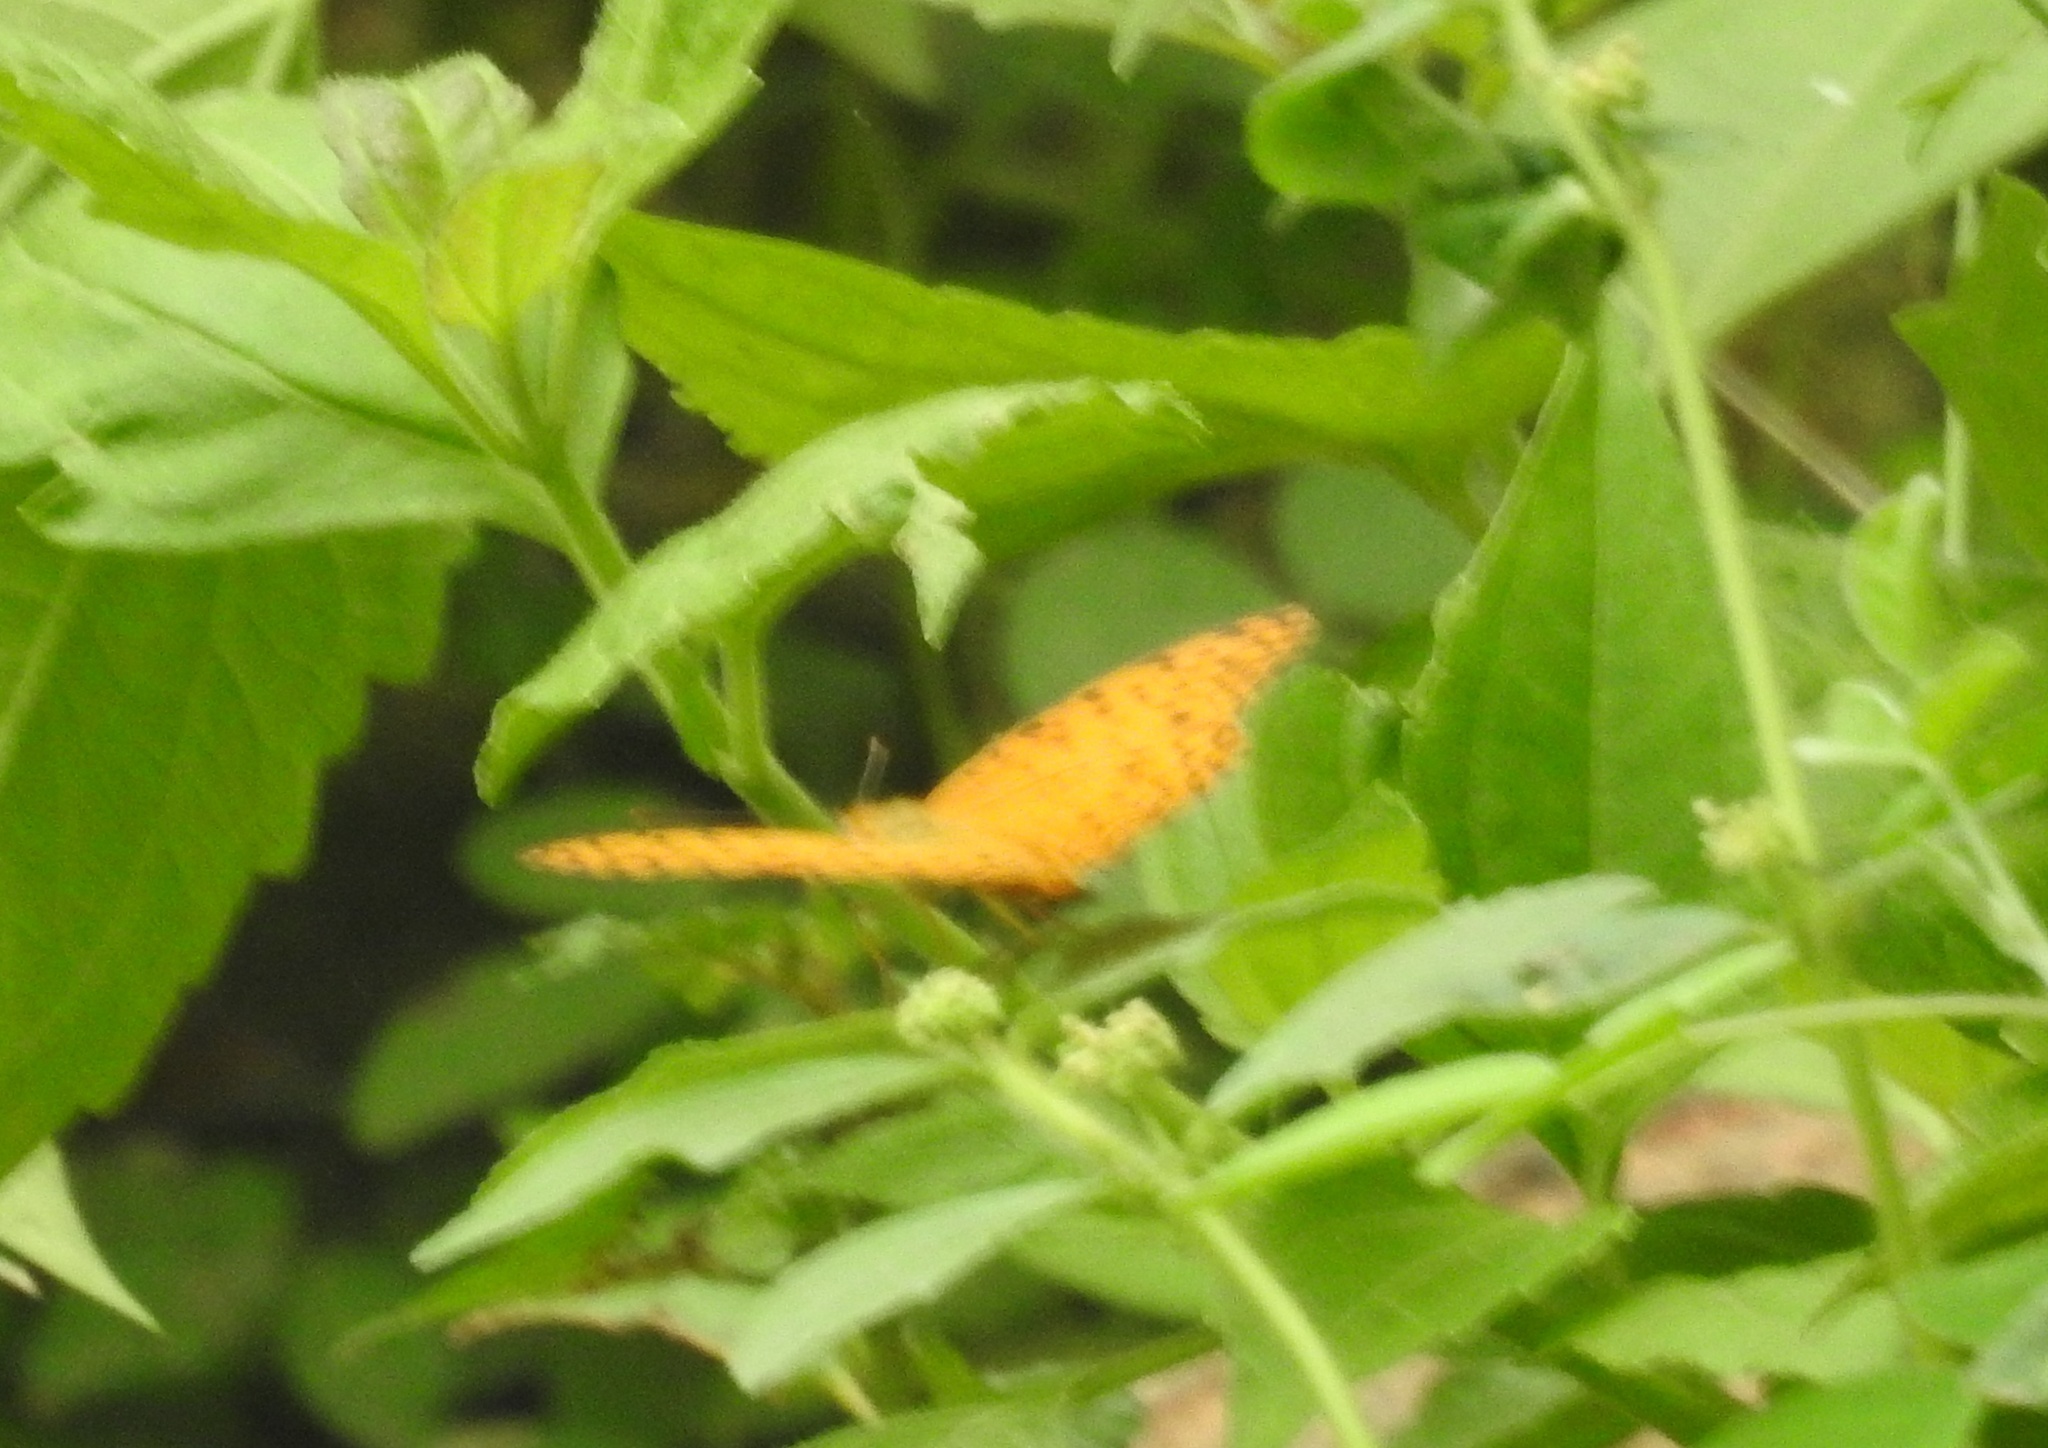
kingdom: Animalia
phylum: Arthropoda
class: Insecta
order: Lepidoptera
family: Nymphalidae
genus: Phalanta
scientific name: Phalanta phalantha
